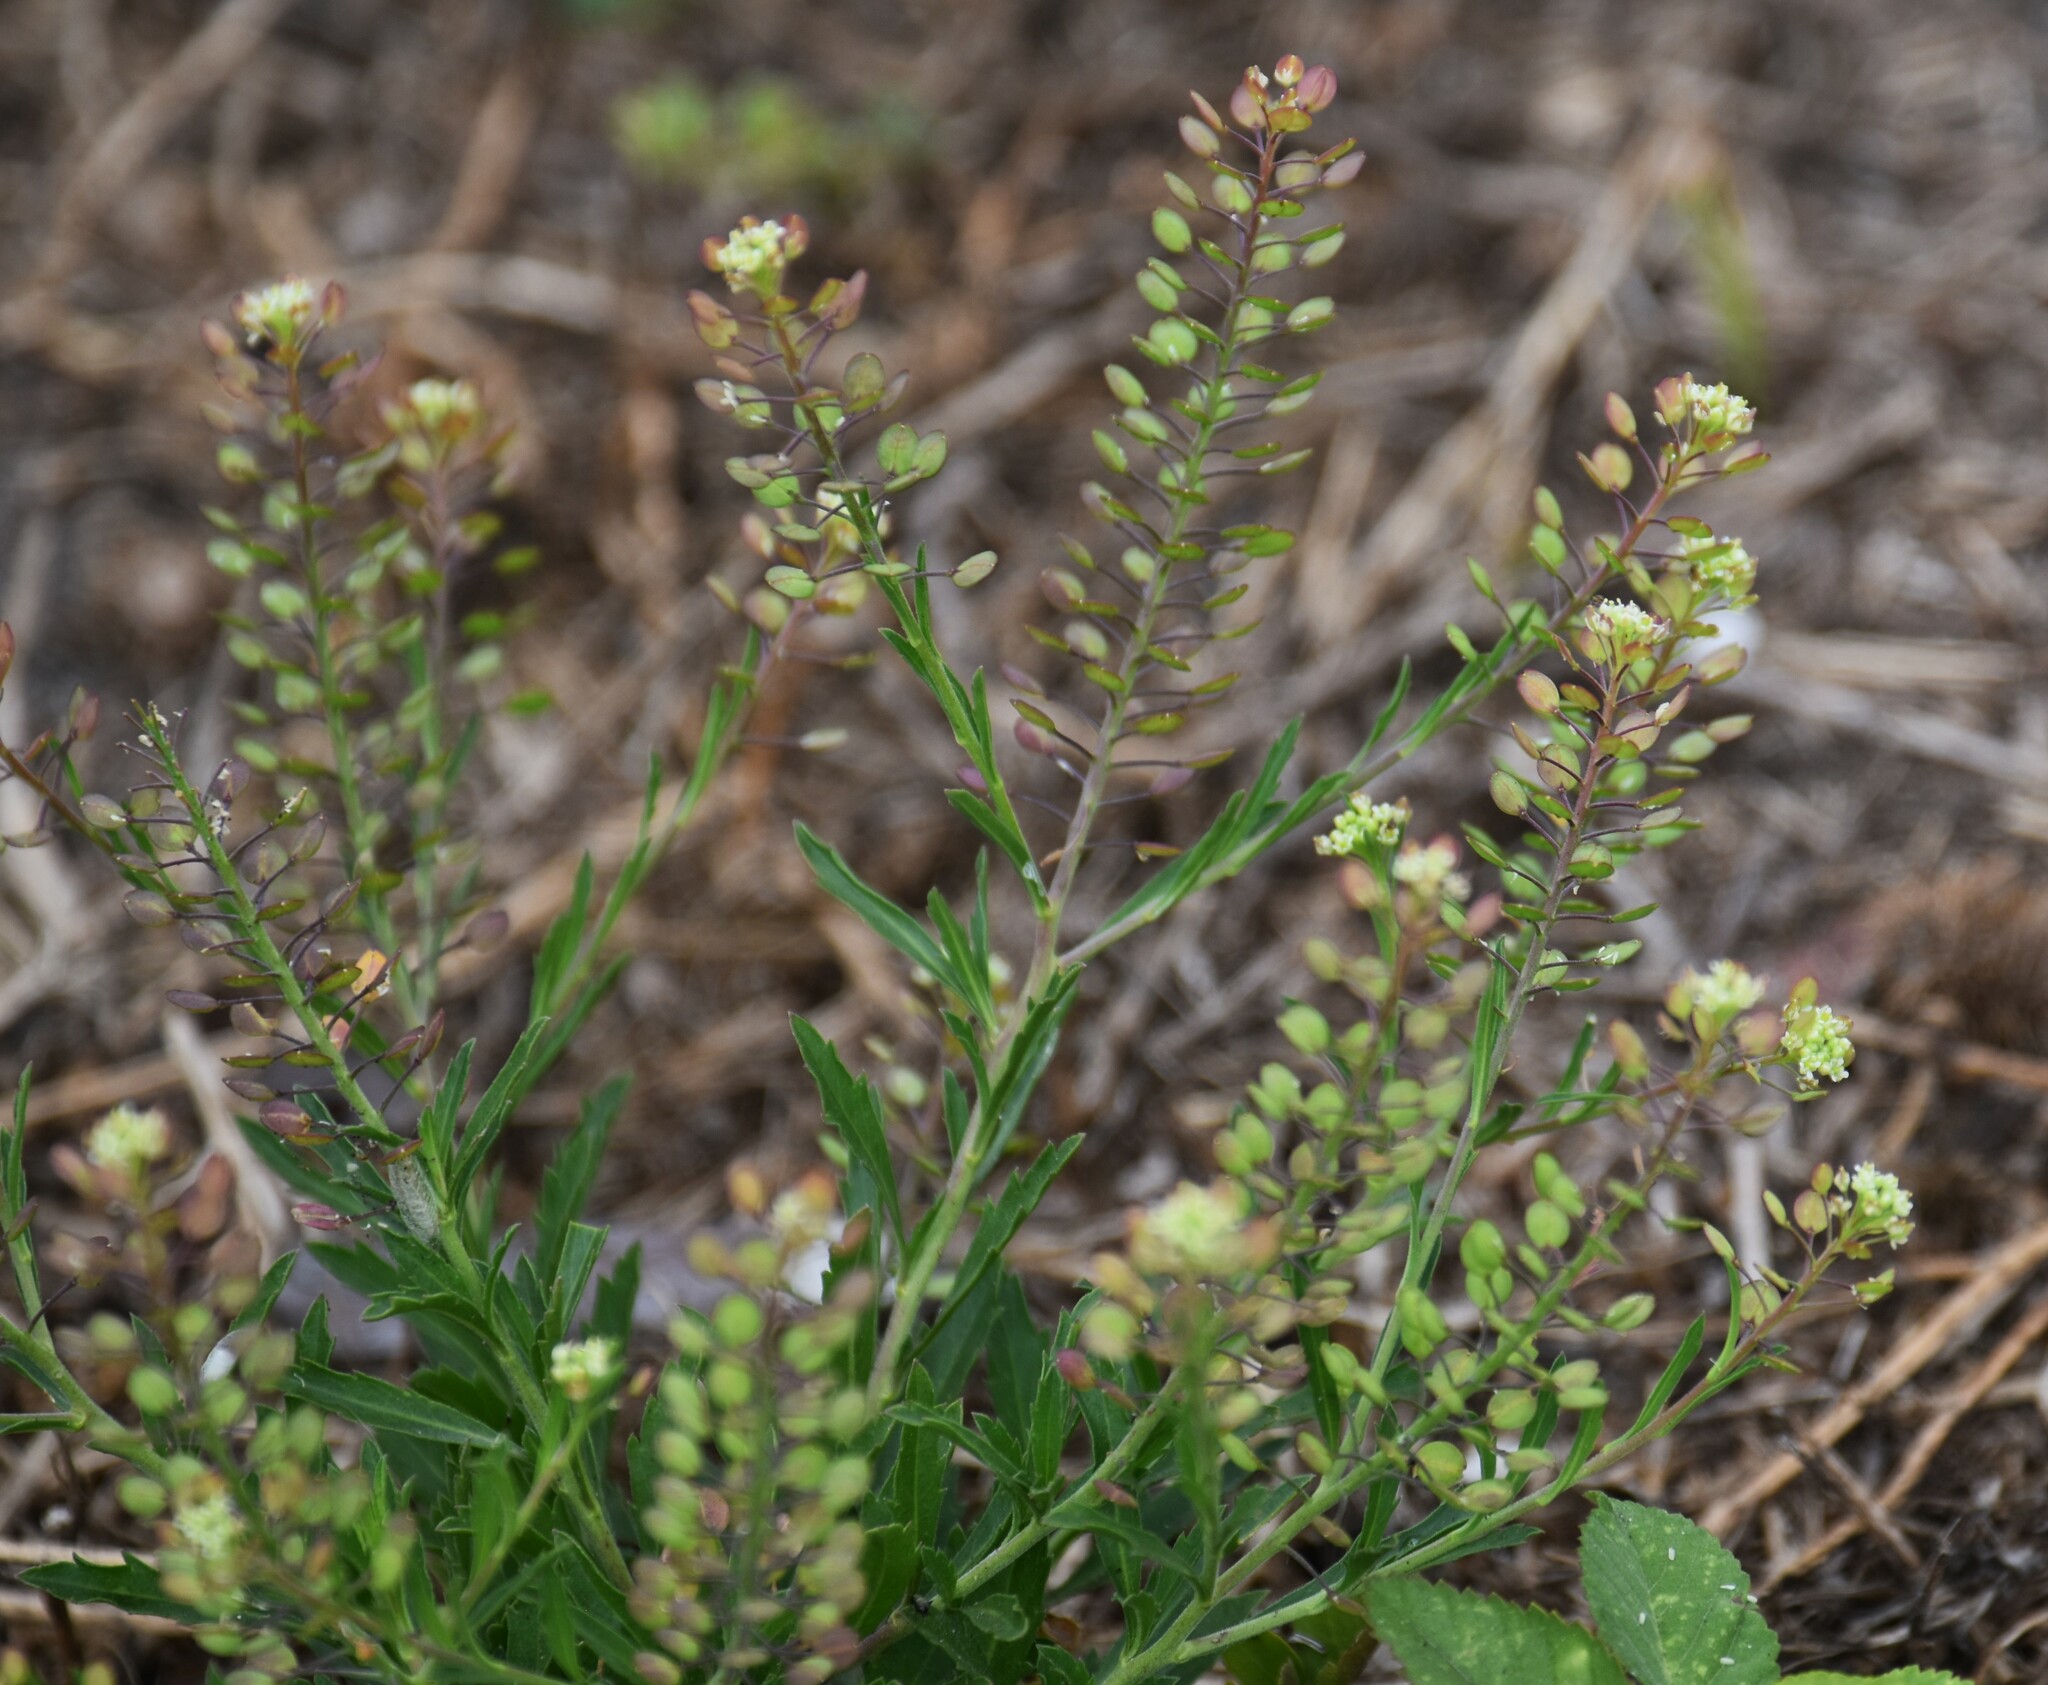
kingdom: Plantae
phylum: Tracheophyta
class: Magnoliopsida
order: Brassicales
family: Brassicaceae
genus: Lepidium
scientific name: Lepidium virginicum
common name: Least pepperwort
